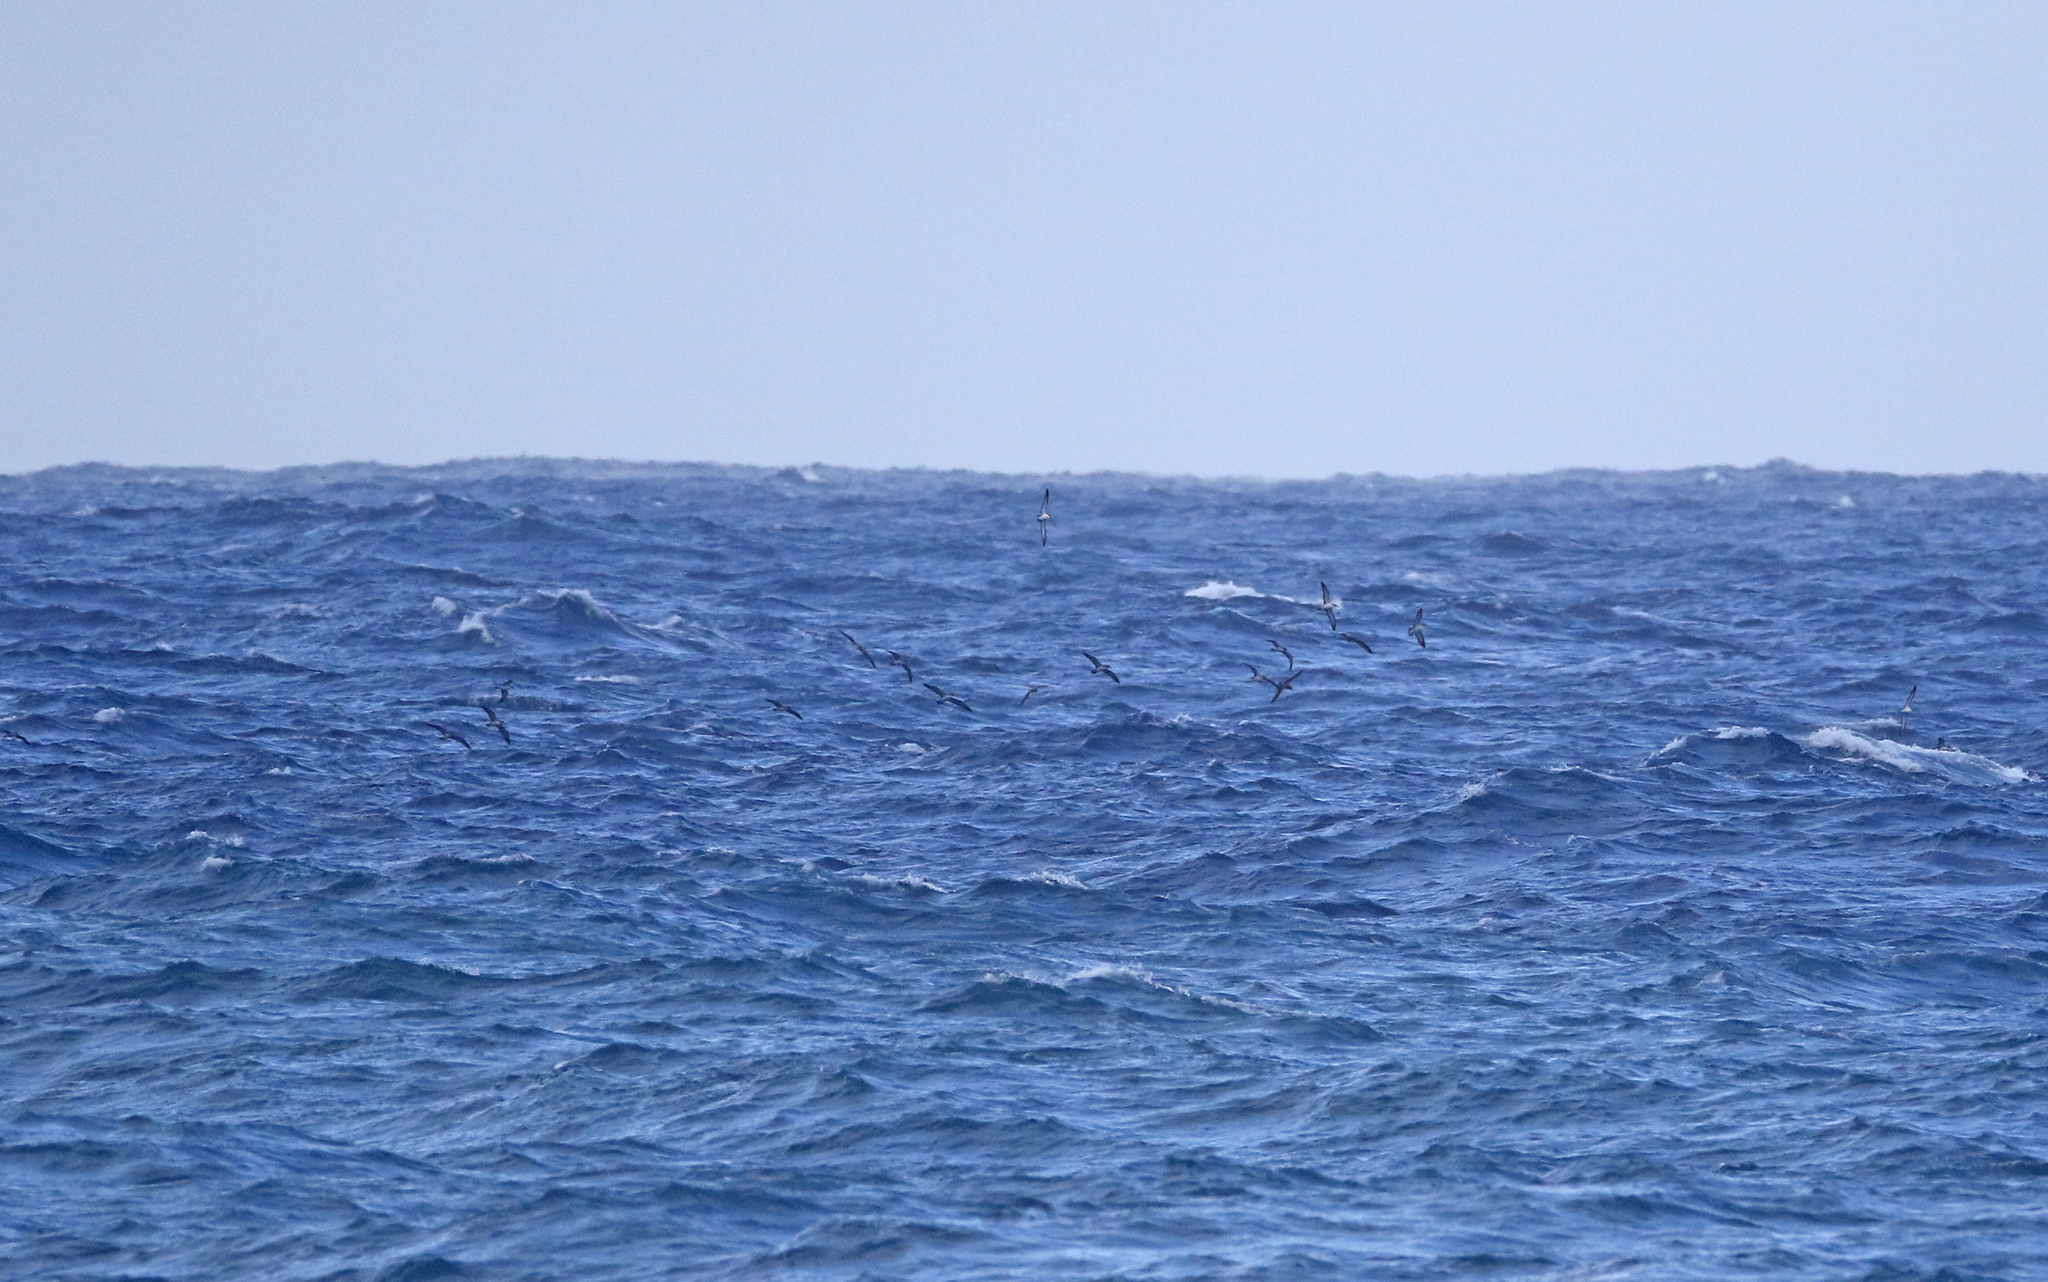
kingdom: Animalia
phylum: Chordata
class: Aves
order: Procellariiformes
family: Procellariidae
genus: Calonectris
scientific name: Calonectris diomedea
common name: Cory's shearwater
